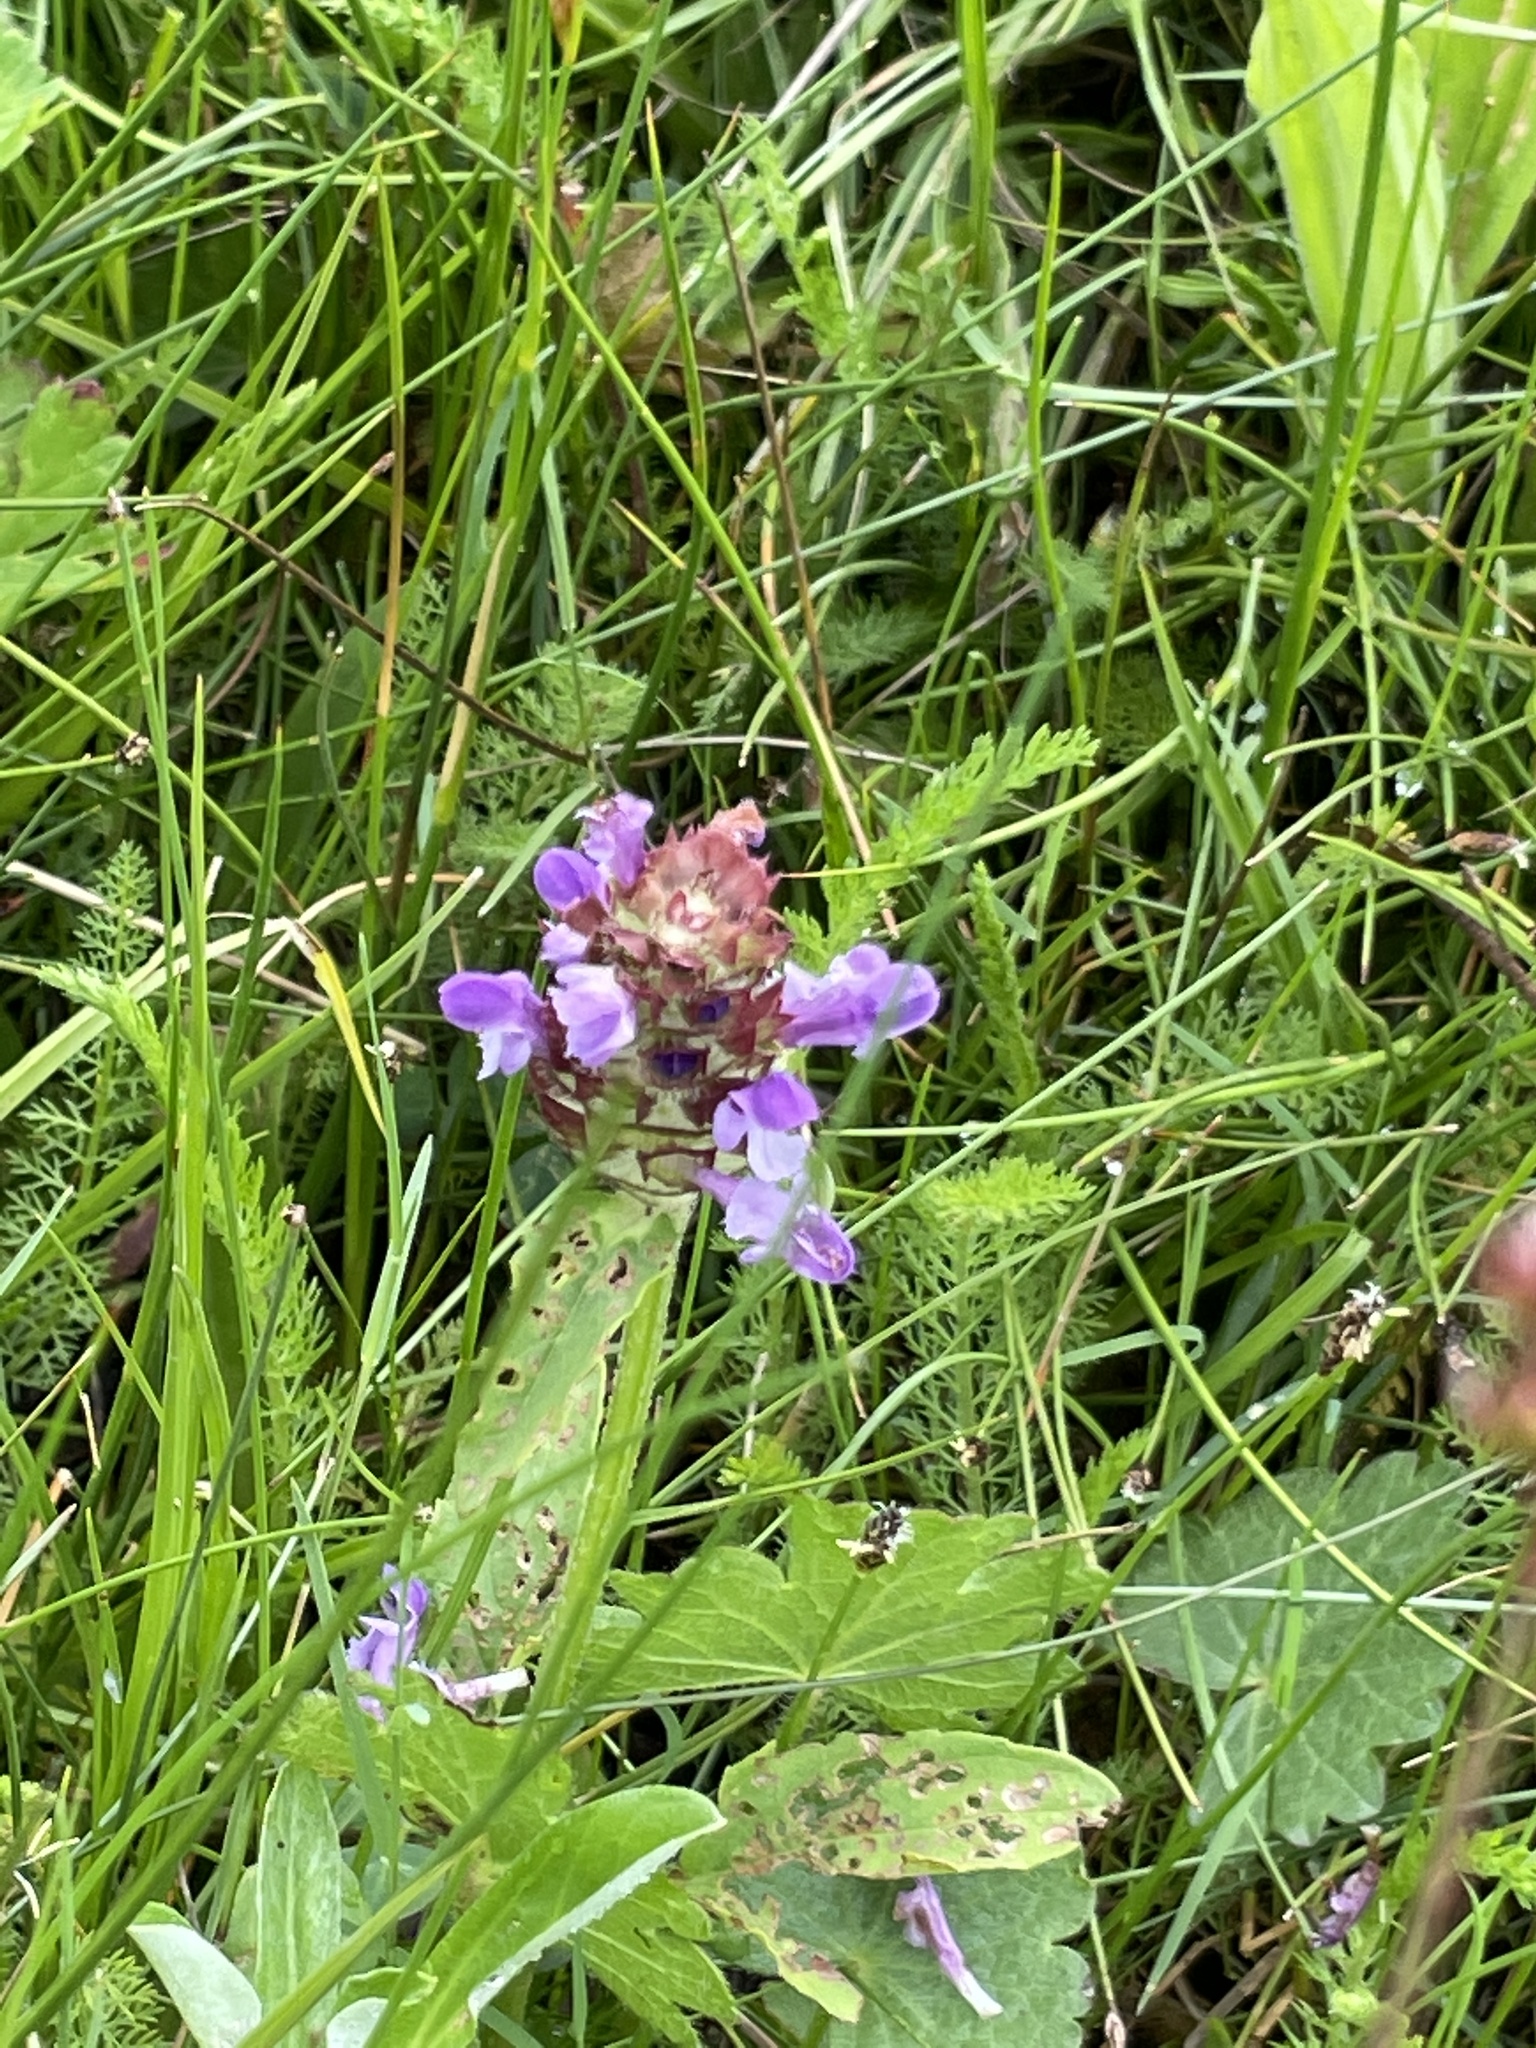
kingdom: Plantae
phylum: Tracheophyta
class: Magnoliopsida
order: Lamiales
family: Lamiaceae
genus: Prunella
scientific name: Prunella vulgaris
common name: Heal-all
